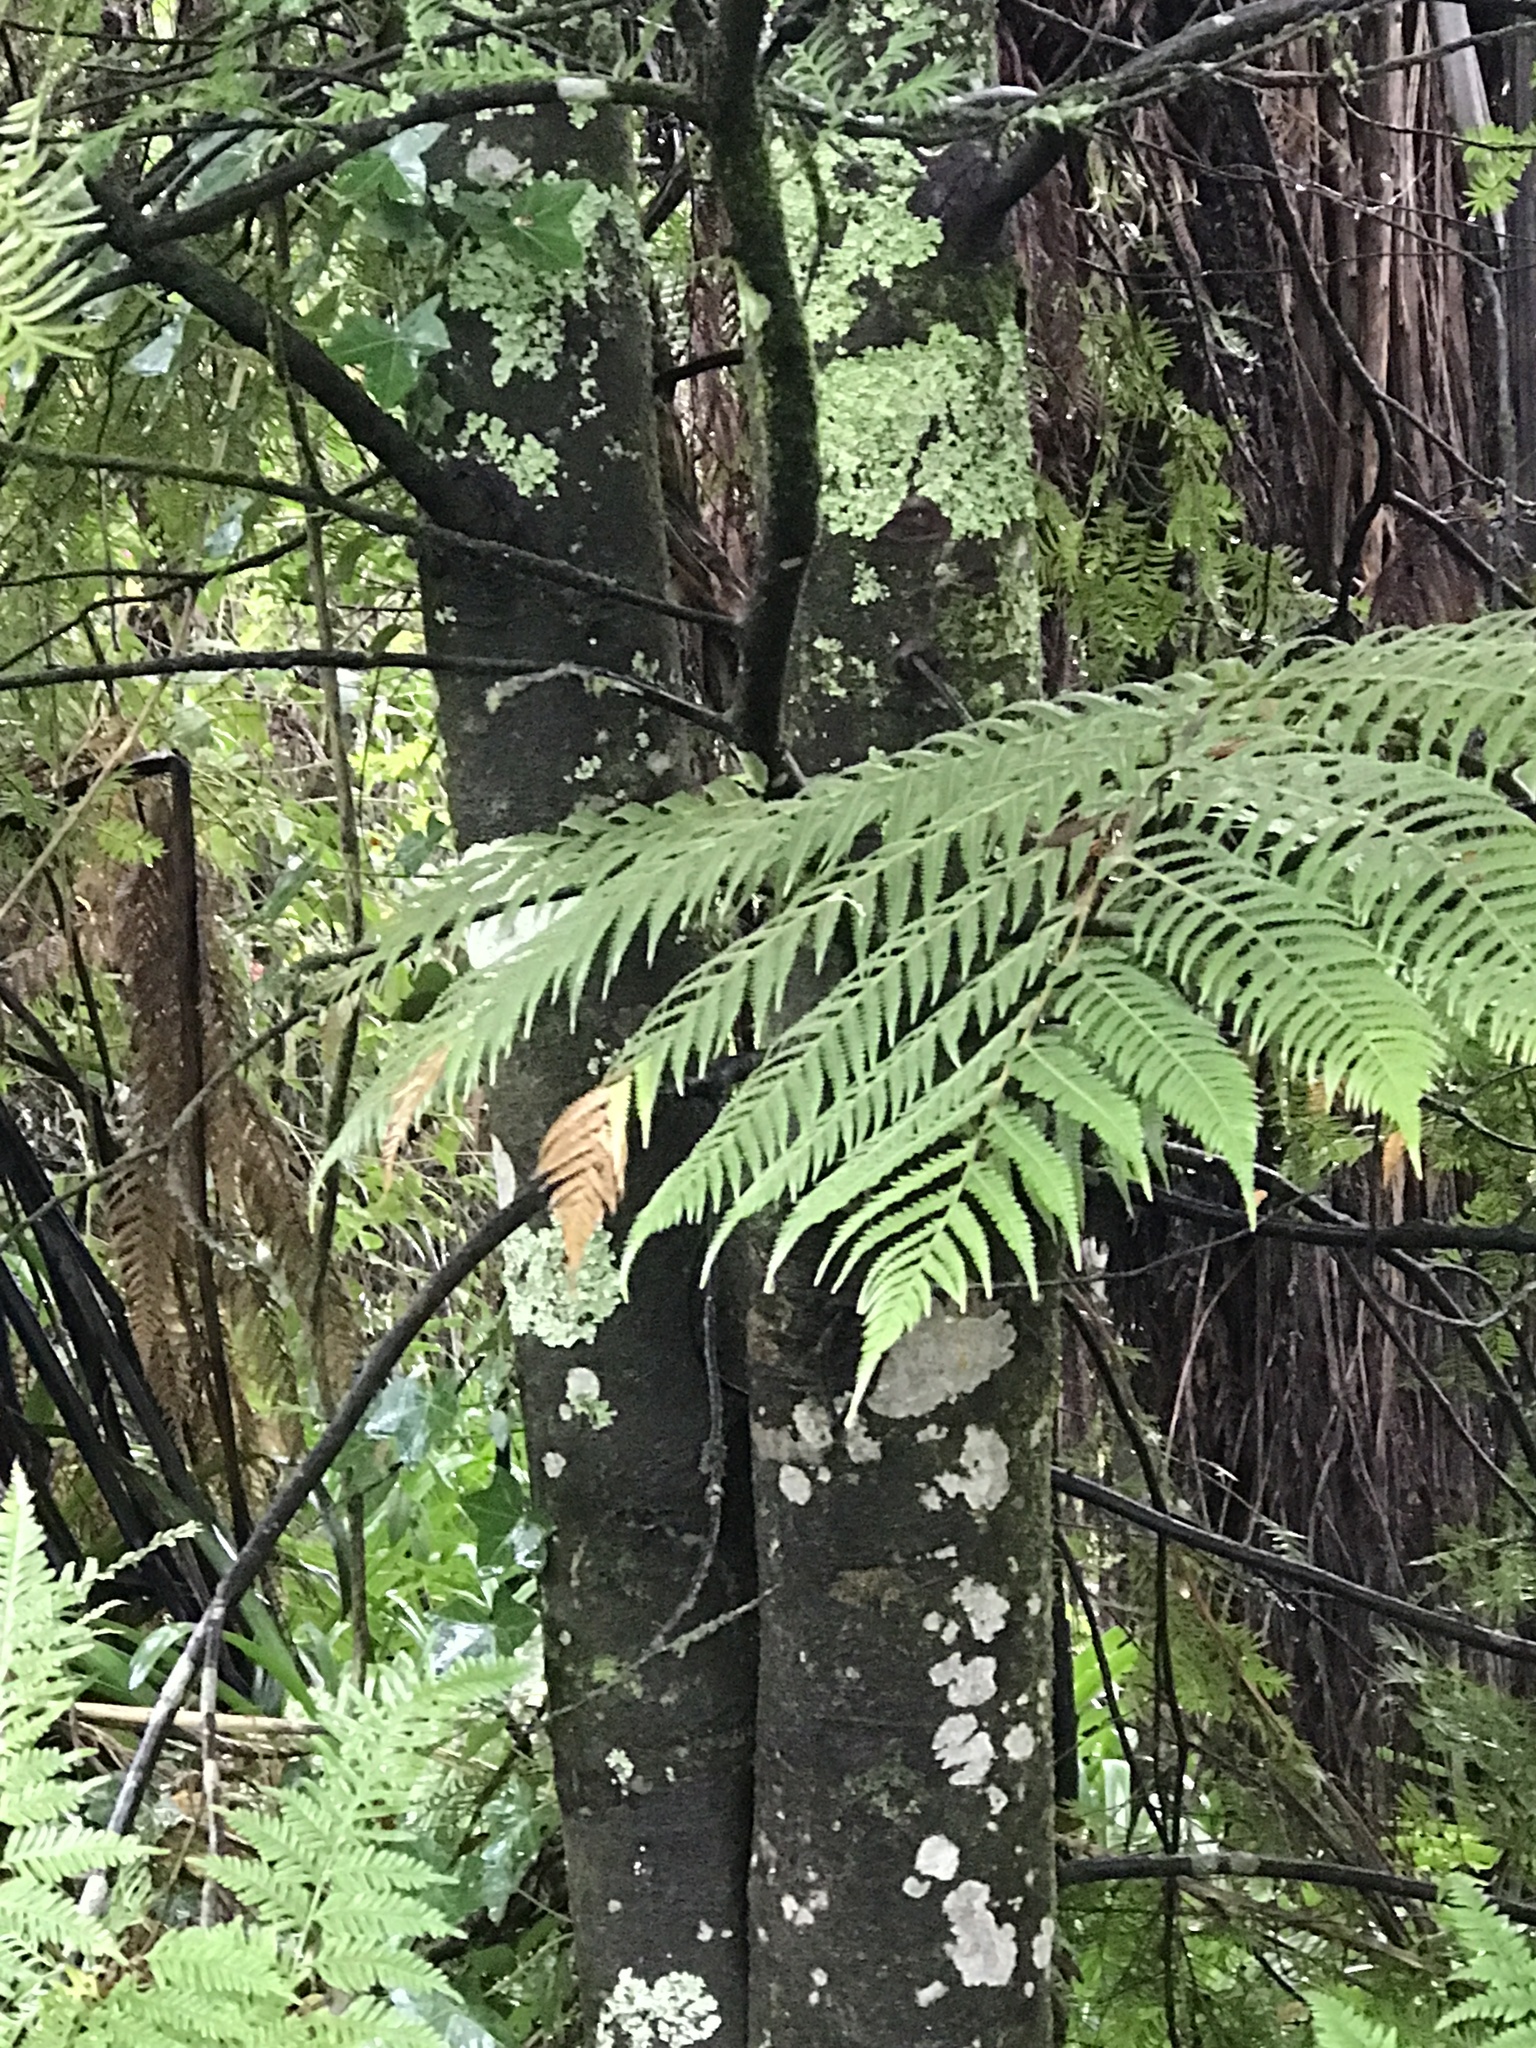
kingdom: Plantae
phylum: Tracheophyta
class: Pinopsida
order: Pinales
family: Podocarpaceae
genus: Prumnopitys
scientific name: Prumnopitys ferruginea
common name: Brown pine
